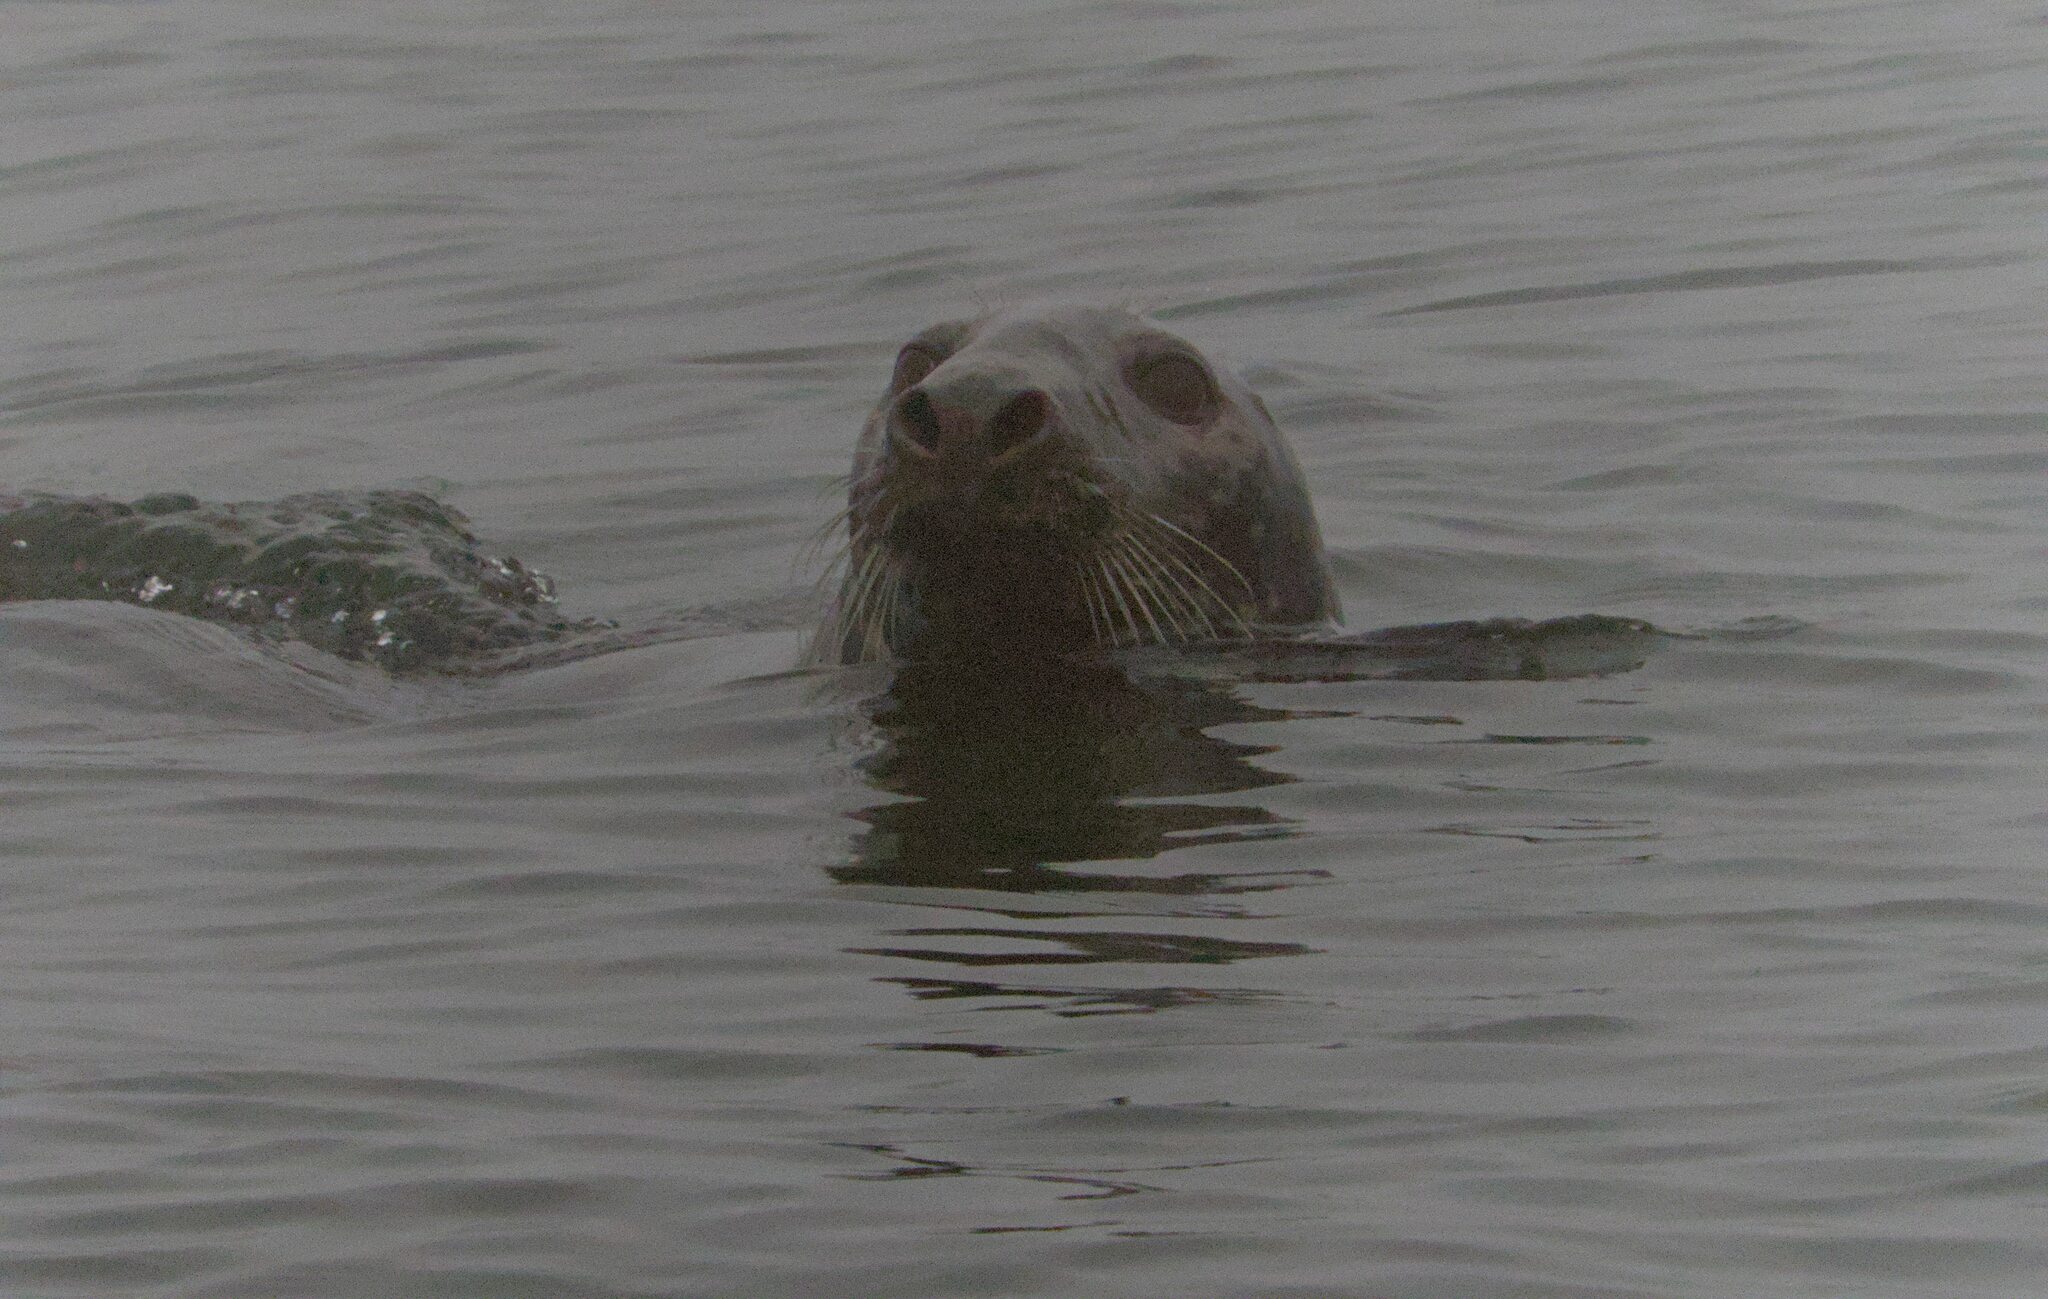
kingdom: Animalia
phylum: Chordata
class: Mammalia
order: Carnivora
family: Phocidae
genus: Halichoerus
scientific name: Halichoerus grypus
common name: Grey seal
